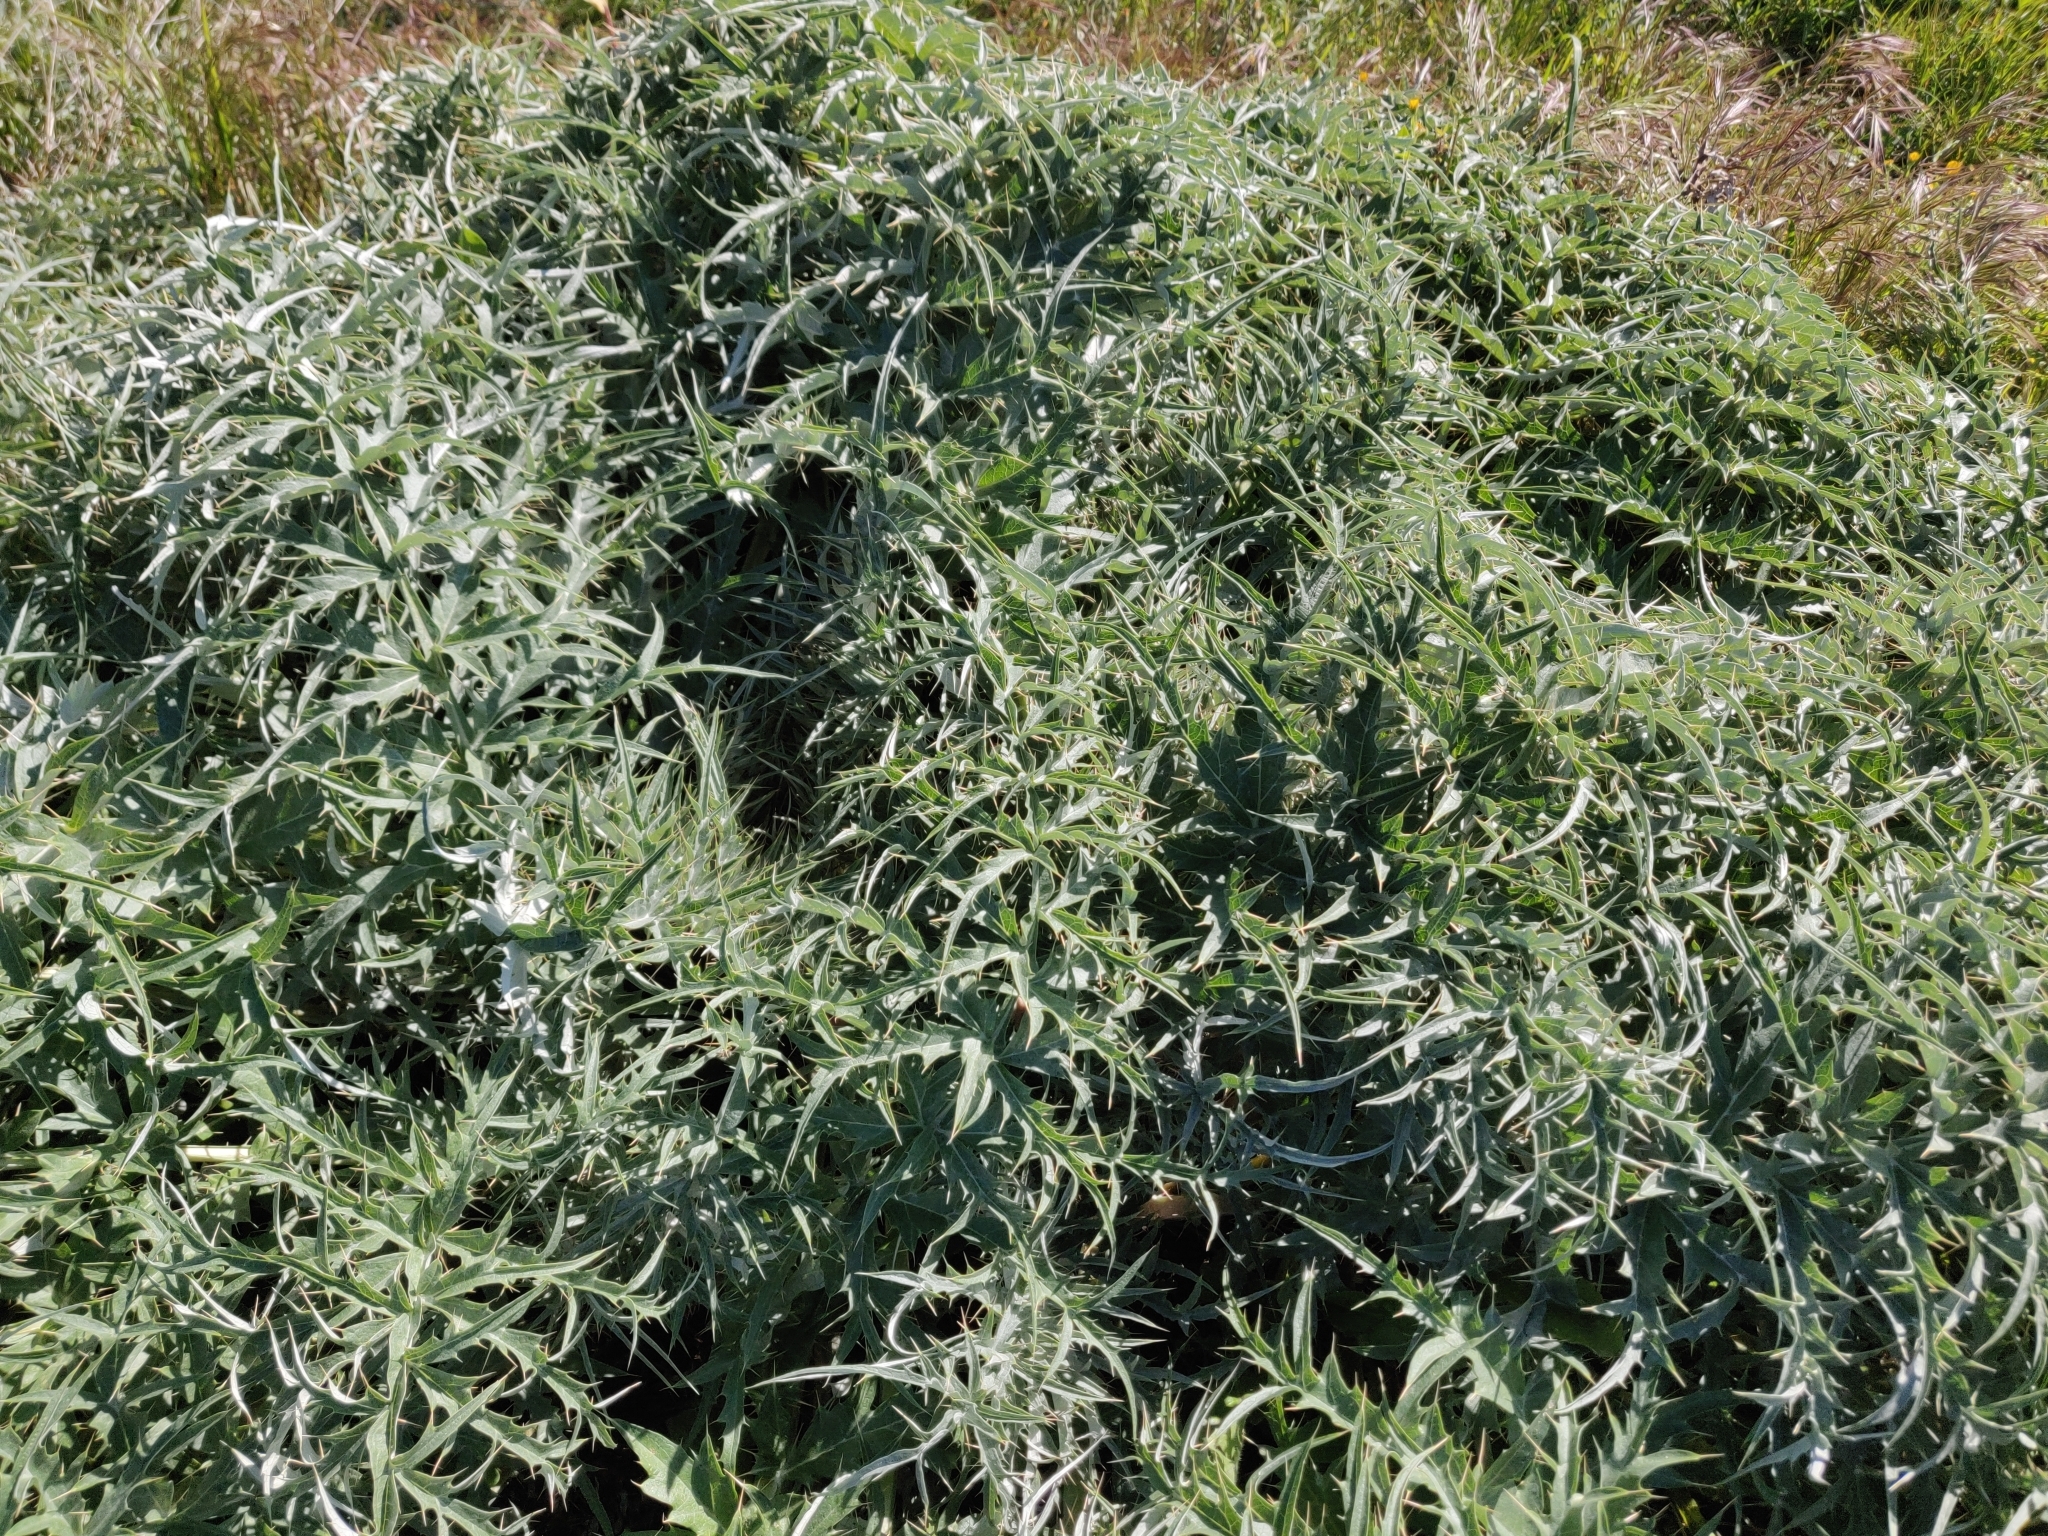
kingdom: Plantae
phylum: Tracheophyta
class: Magnoliopsida
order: Asterales
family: Asteraceae
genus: Cynara
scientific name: Cynara cardunculus
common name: Globe artichoke
